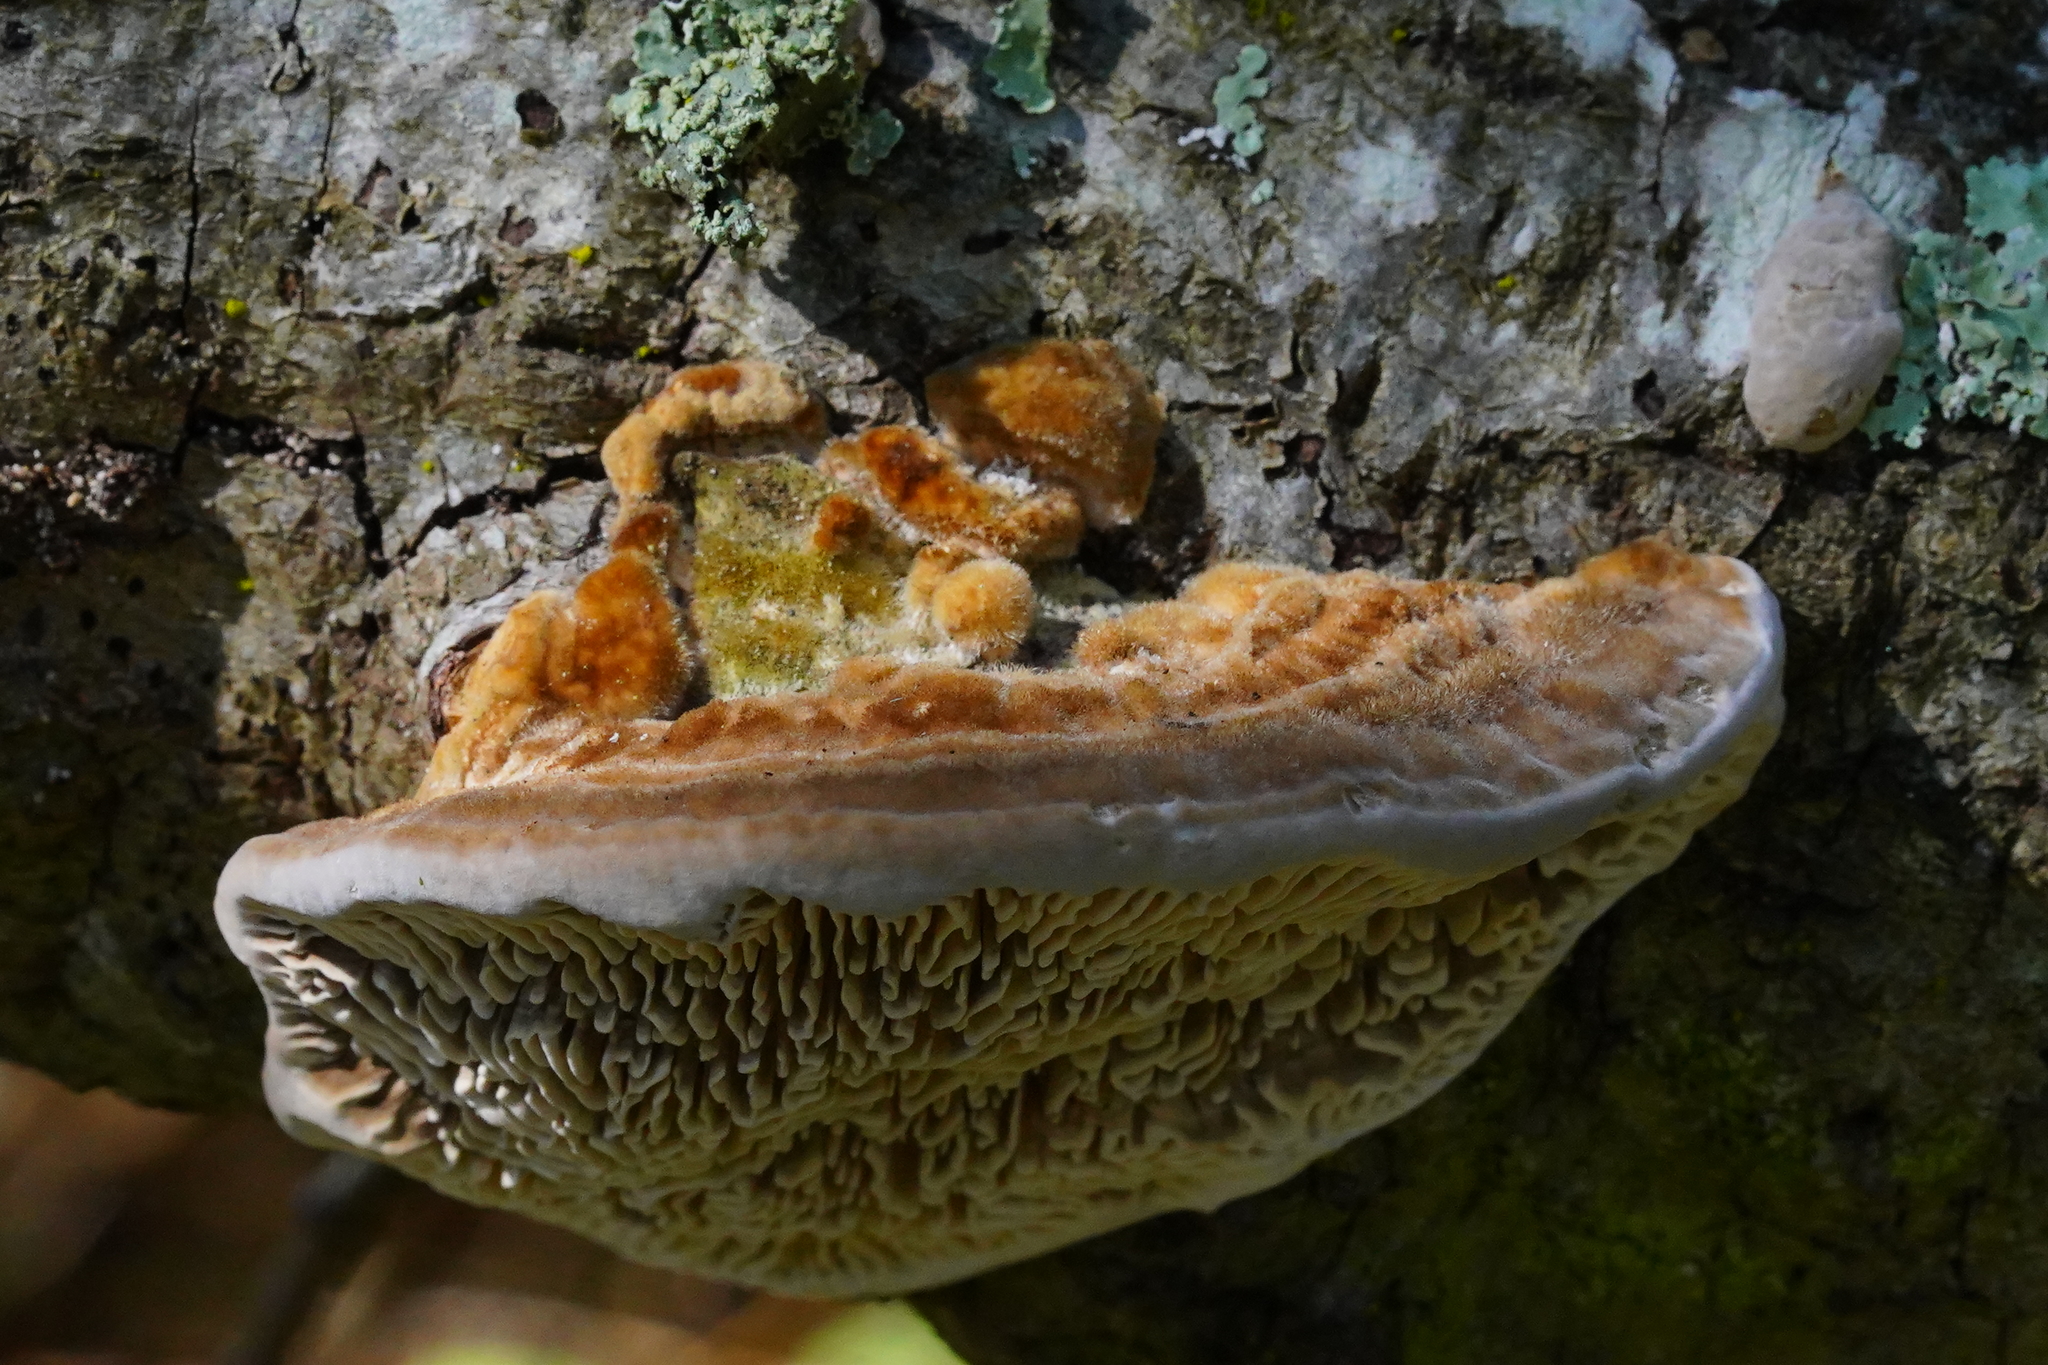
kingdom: Fungi
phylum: Basidiomycota
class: Agaricomycetes
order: Polyporales
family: Polyporaceae
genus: Lenzites
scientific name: Lenzites betulinus
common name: Birch mazegill
